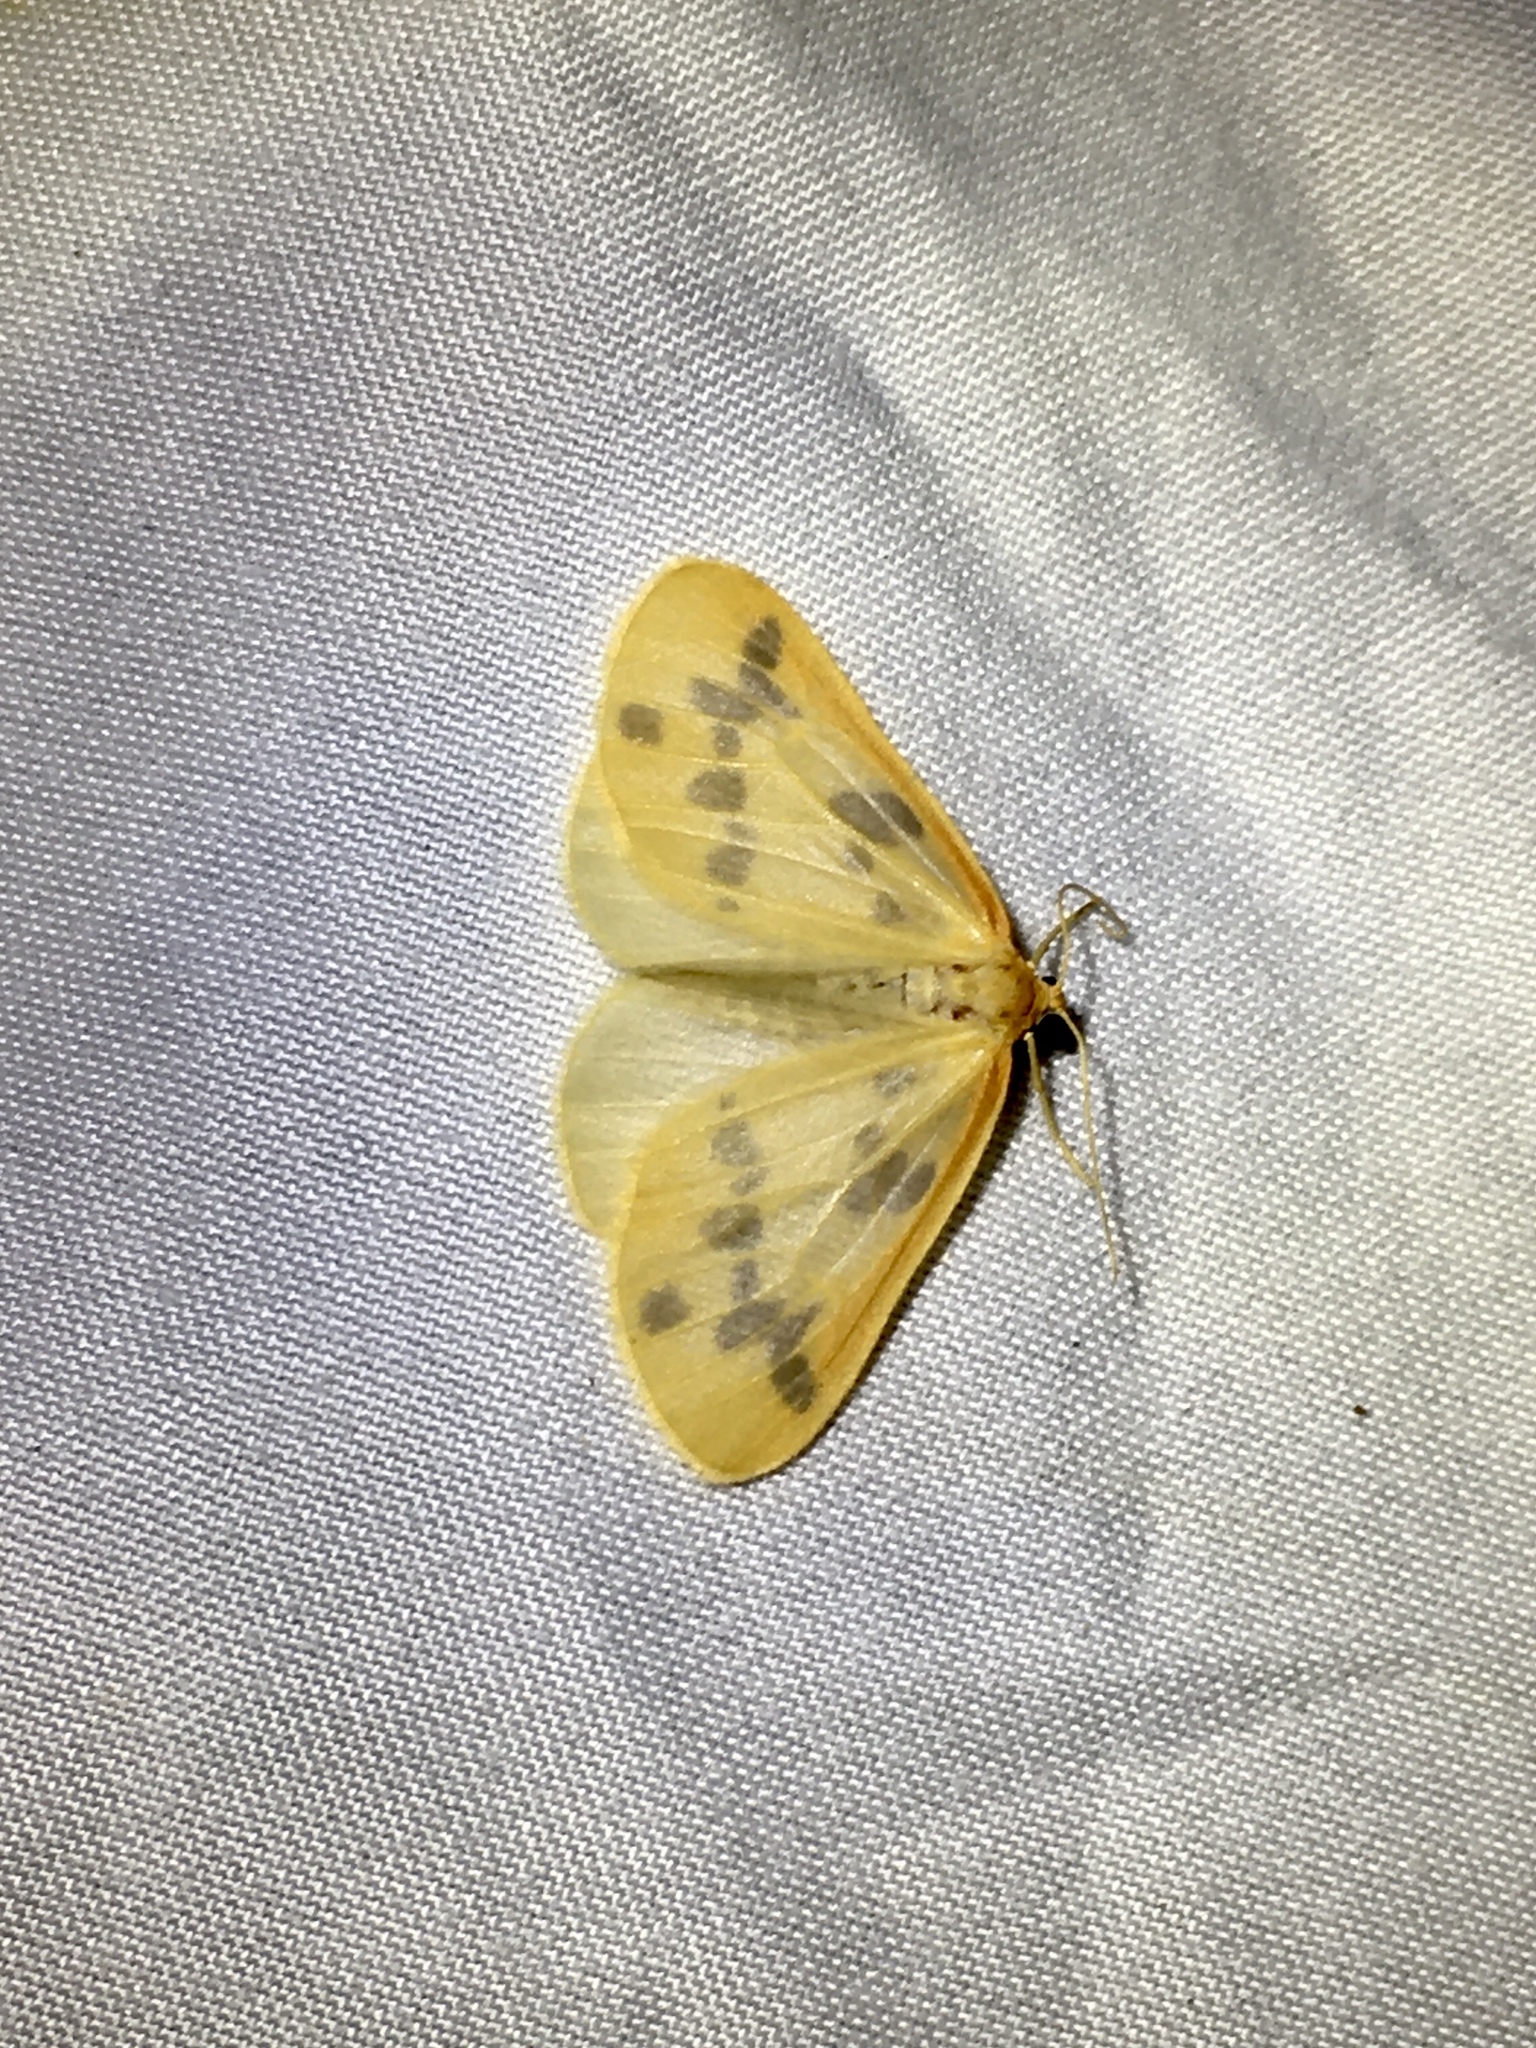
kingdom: Animalia
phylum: Arthropoda
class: Insecta
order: Lepidoptera
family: Geometridae
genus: Eubaphe
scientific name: Eubaphe mendica
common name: Beggar
